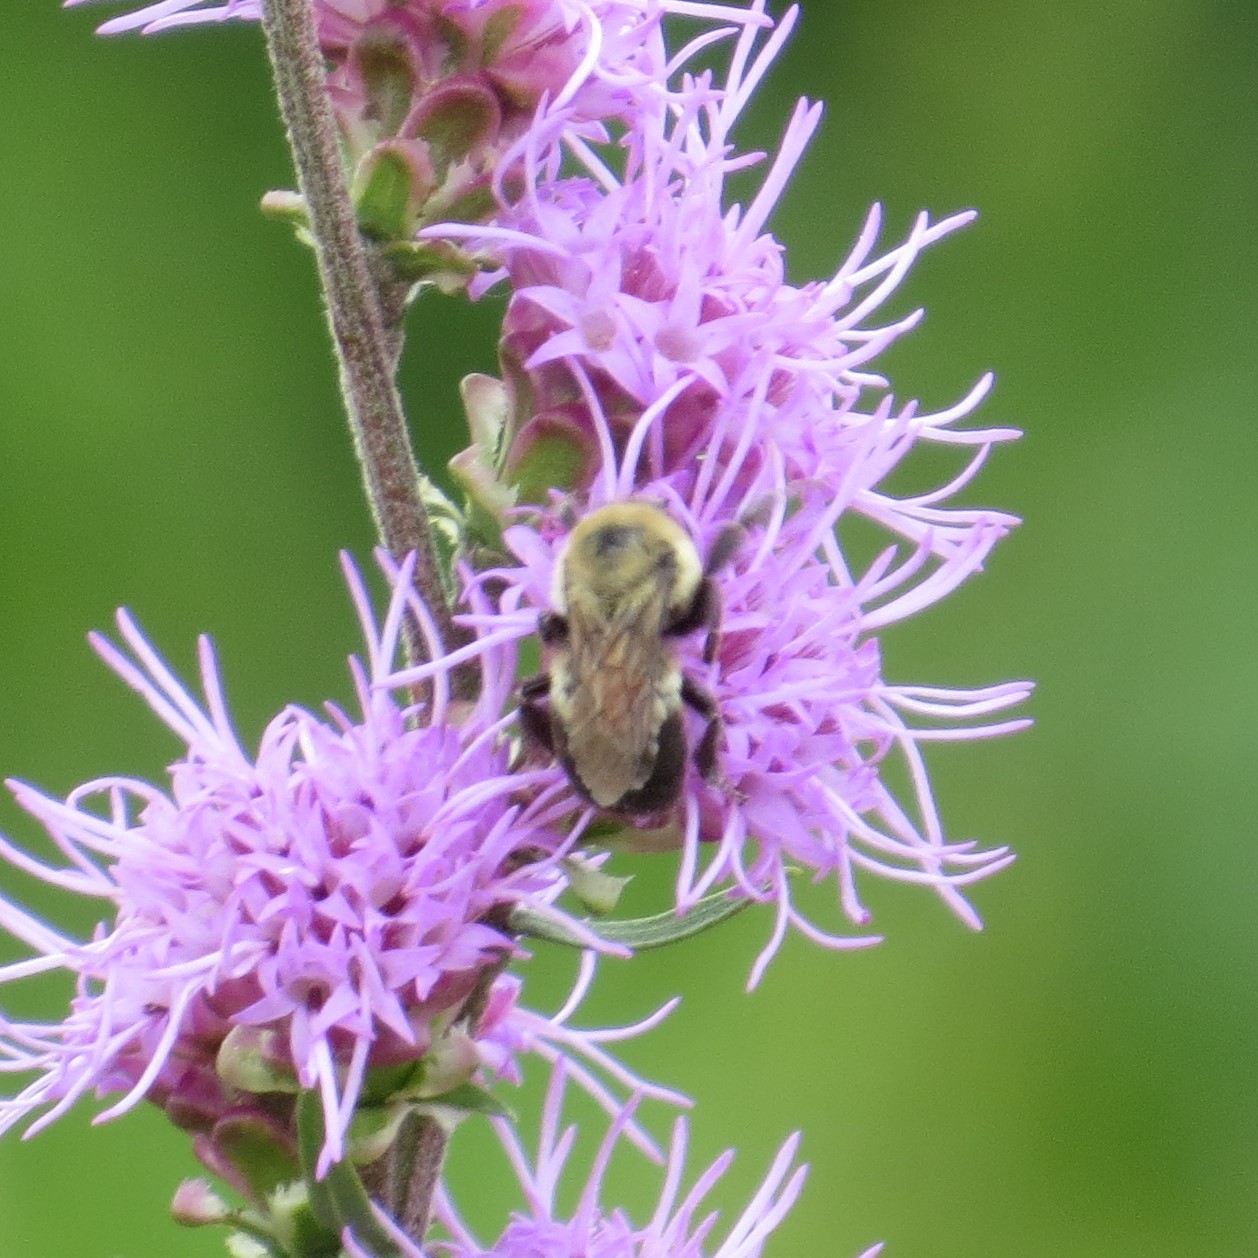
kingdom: Animalia
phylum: Arthropoda
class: Insecta
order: Hymenoptera
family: Apidae
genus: Bombus
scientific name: Bombus griseocollis
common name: Brown-belted bumble bee
